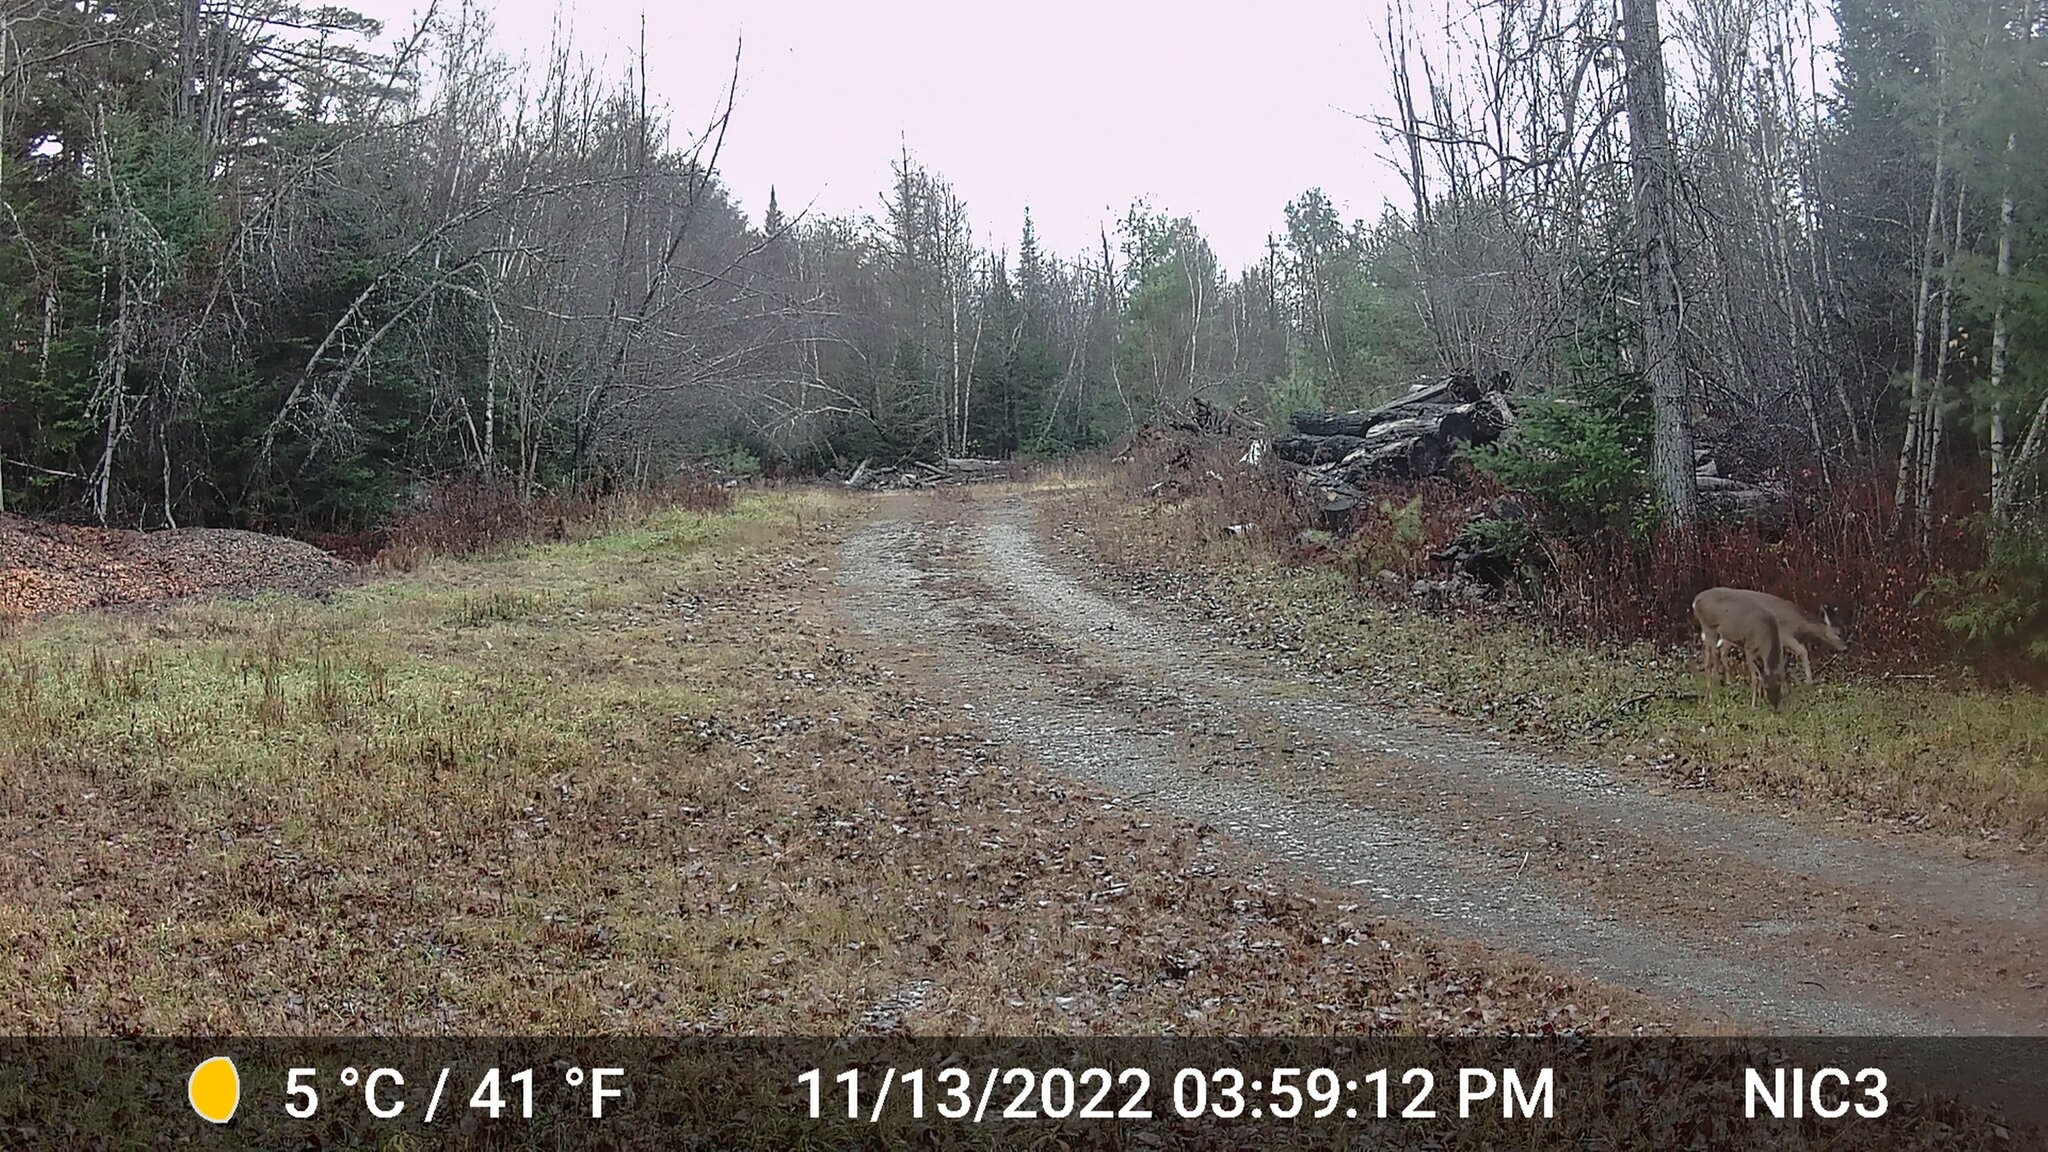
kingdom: Animalia
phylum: Chordata
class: Mammalia
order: Artiodactyla
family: Cervidae
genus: Odocoileus
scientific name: Odocoileus virginianus
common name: White-tailed deer
